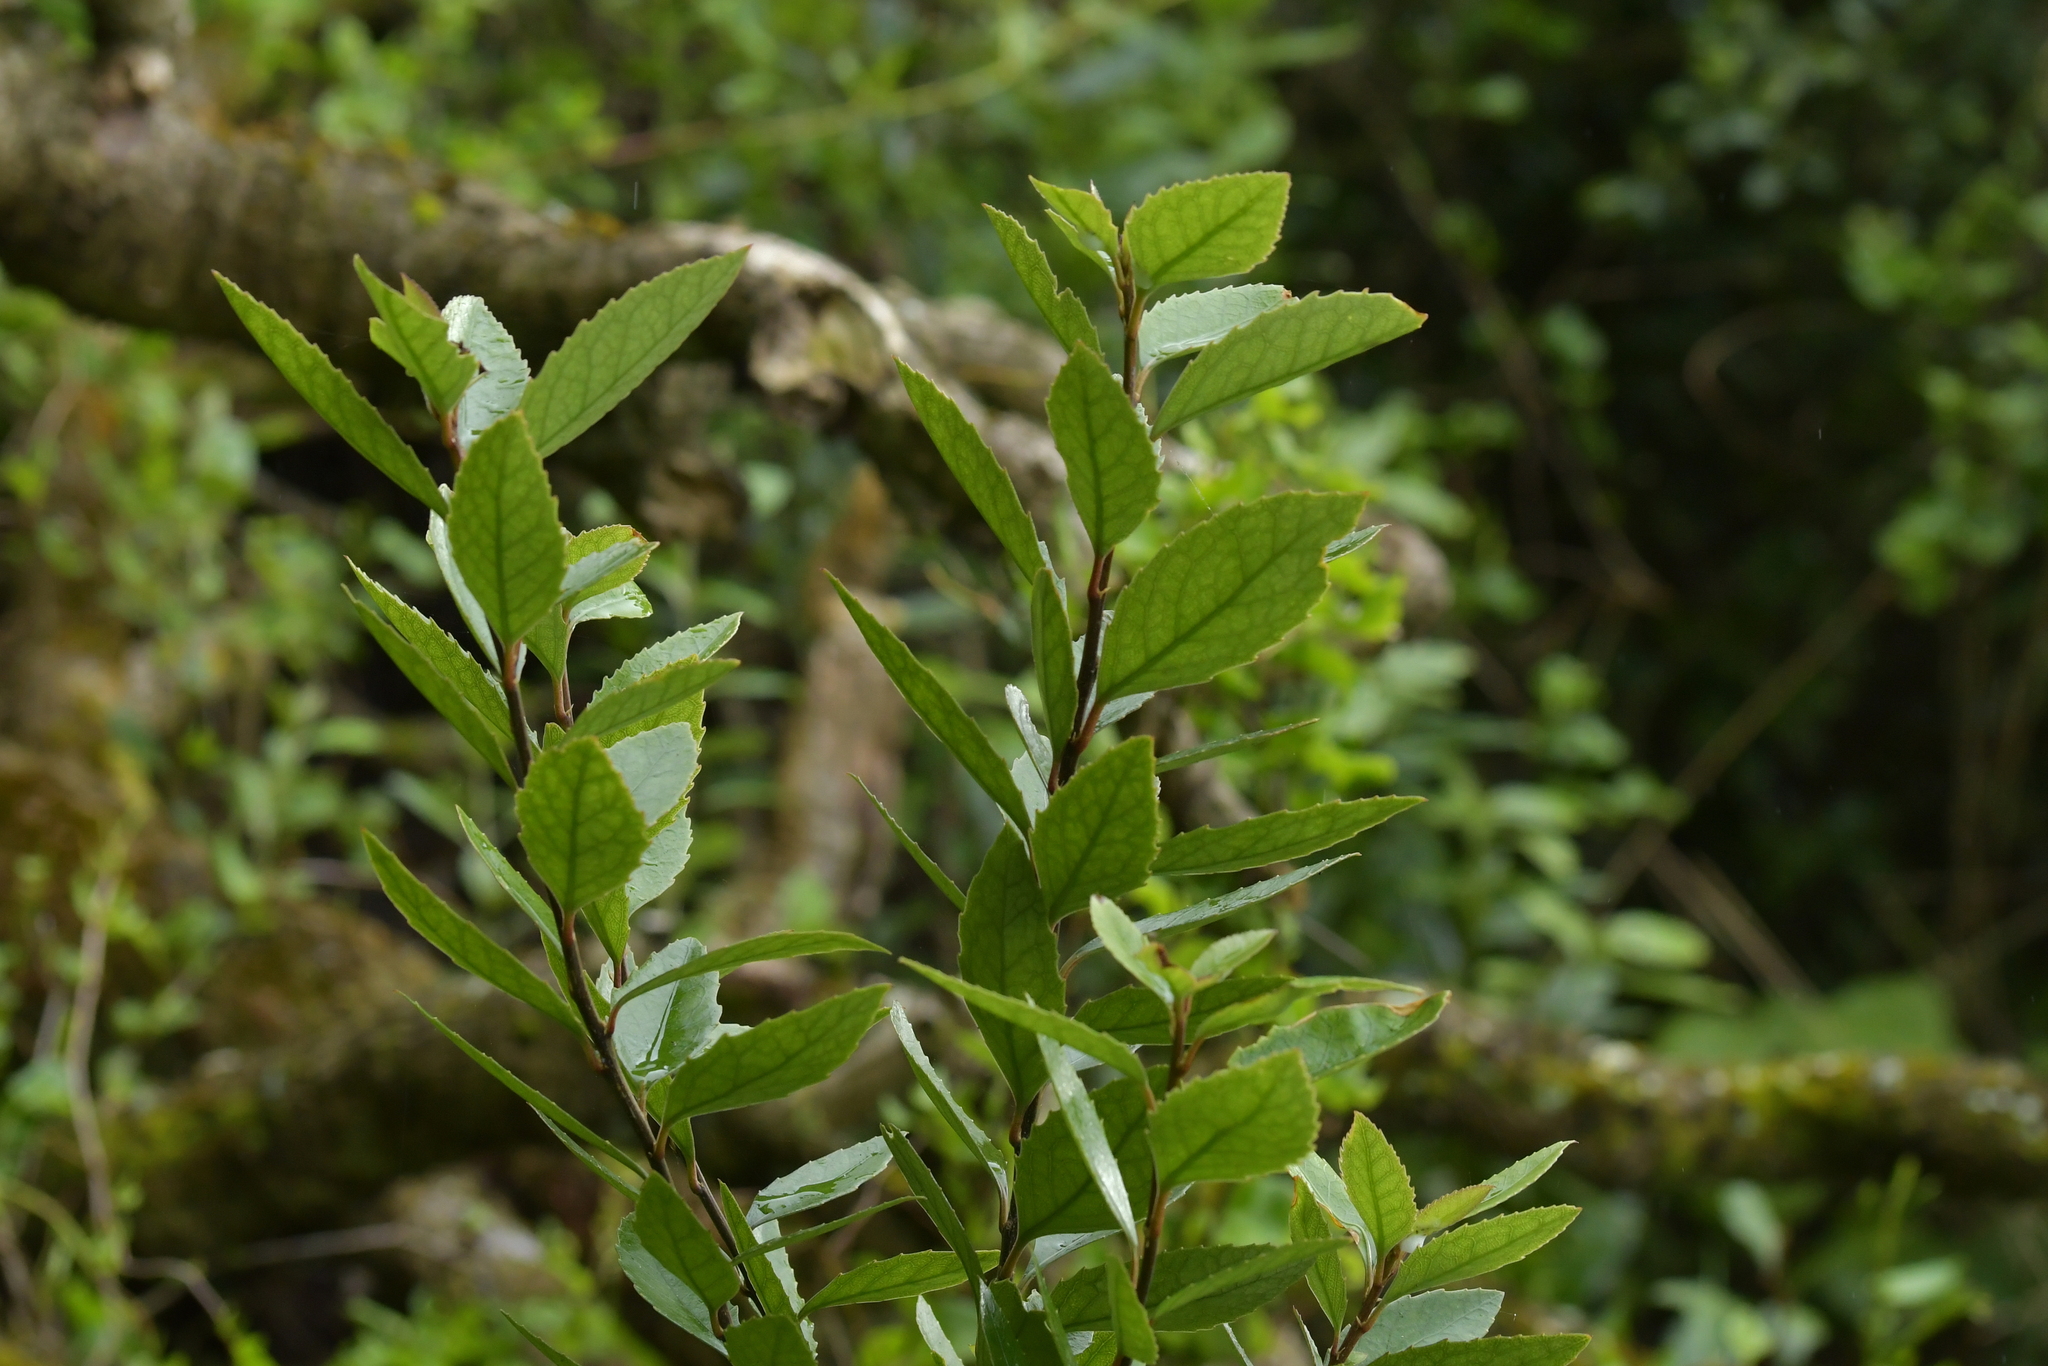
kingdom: Plantae
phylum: Tracheophyta
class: Magnoliopsida
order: Malpighiales
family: Violaceae
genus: Melicytus
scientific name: Melicytus chathamicus
